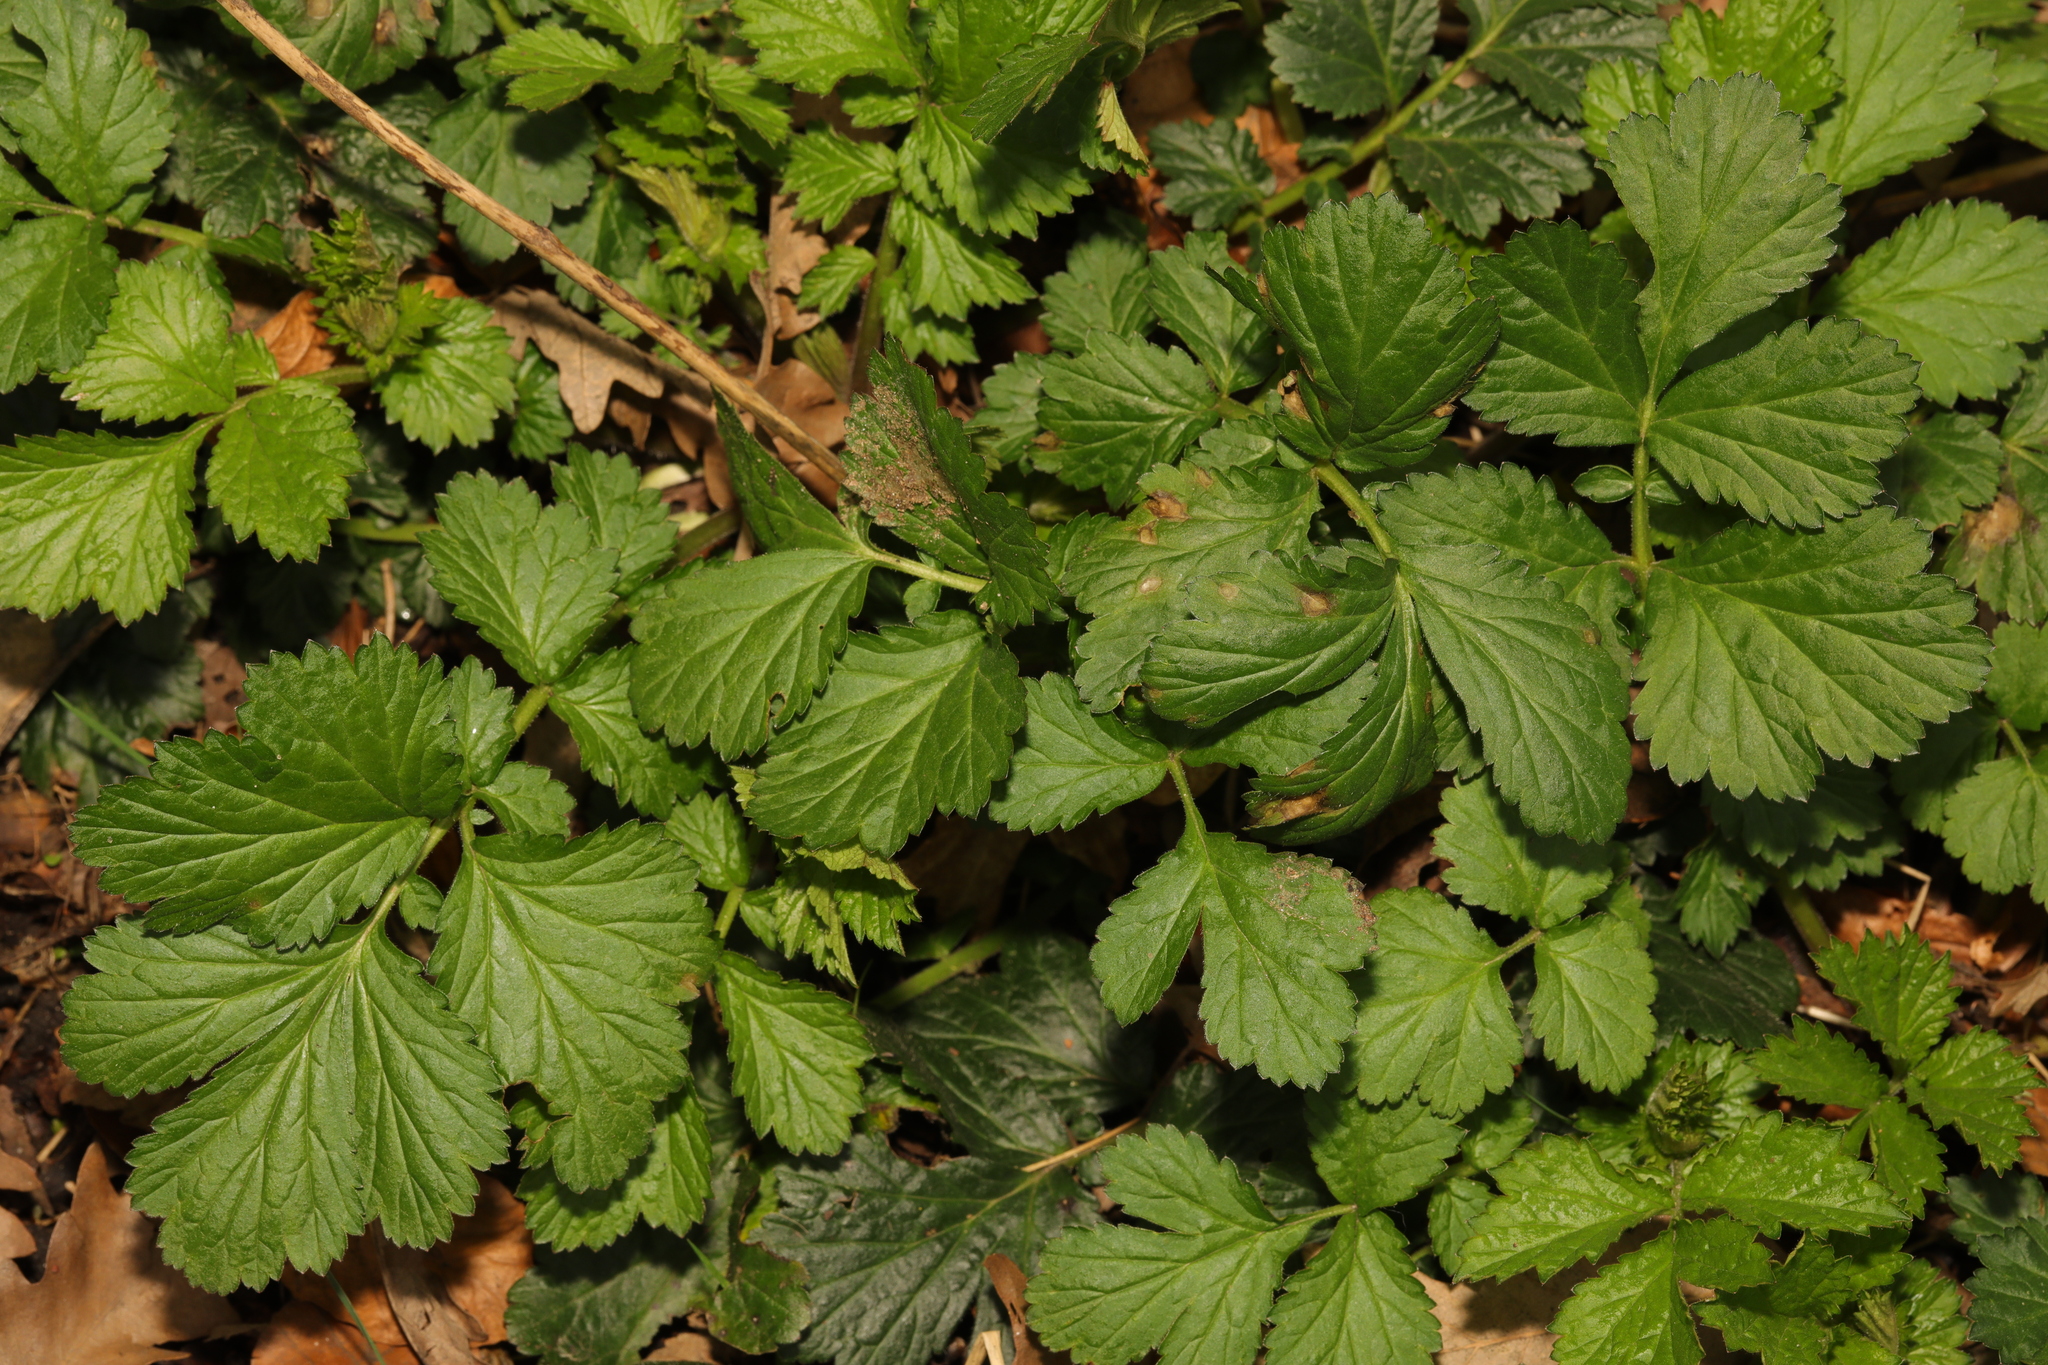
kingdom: Plantae
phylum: Tracheophyta
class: Magnoliopsida
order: Rosales
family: Rosaceae
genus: Geum
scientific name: Geum urbanum
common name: Wood avens
